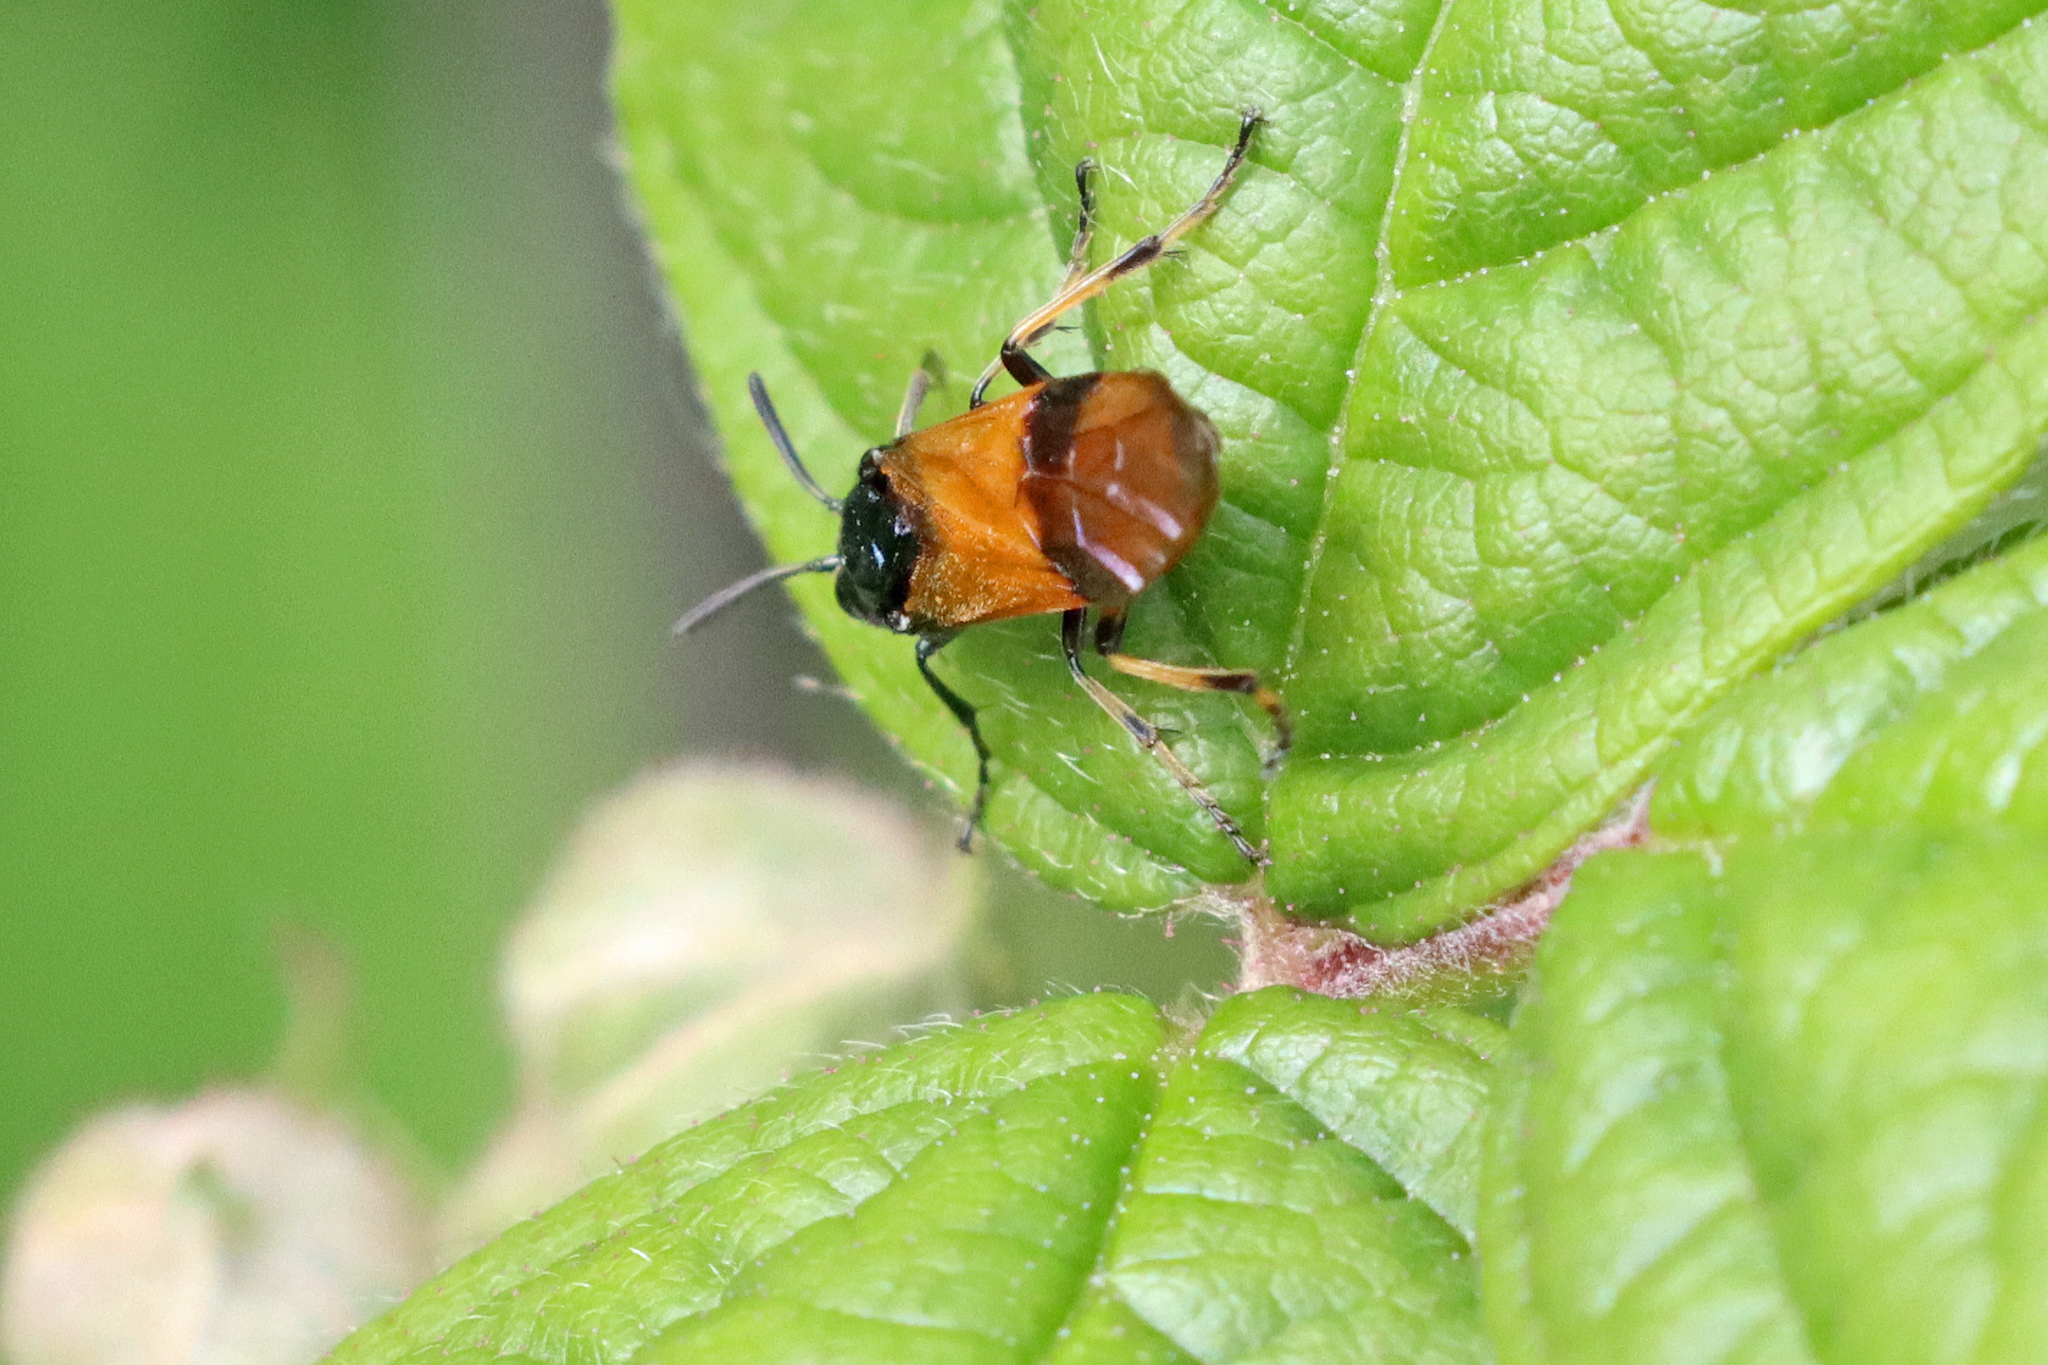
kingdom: Animalia
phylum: Arthropoda
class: Insecta
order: Hymenoptera
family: Argidae
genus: Arge
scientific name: Arge cyanocrocea
